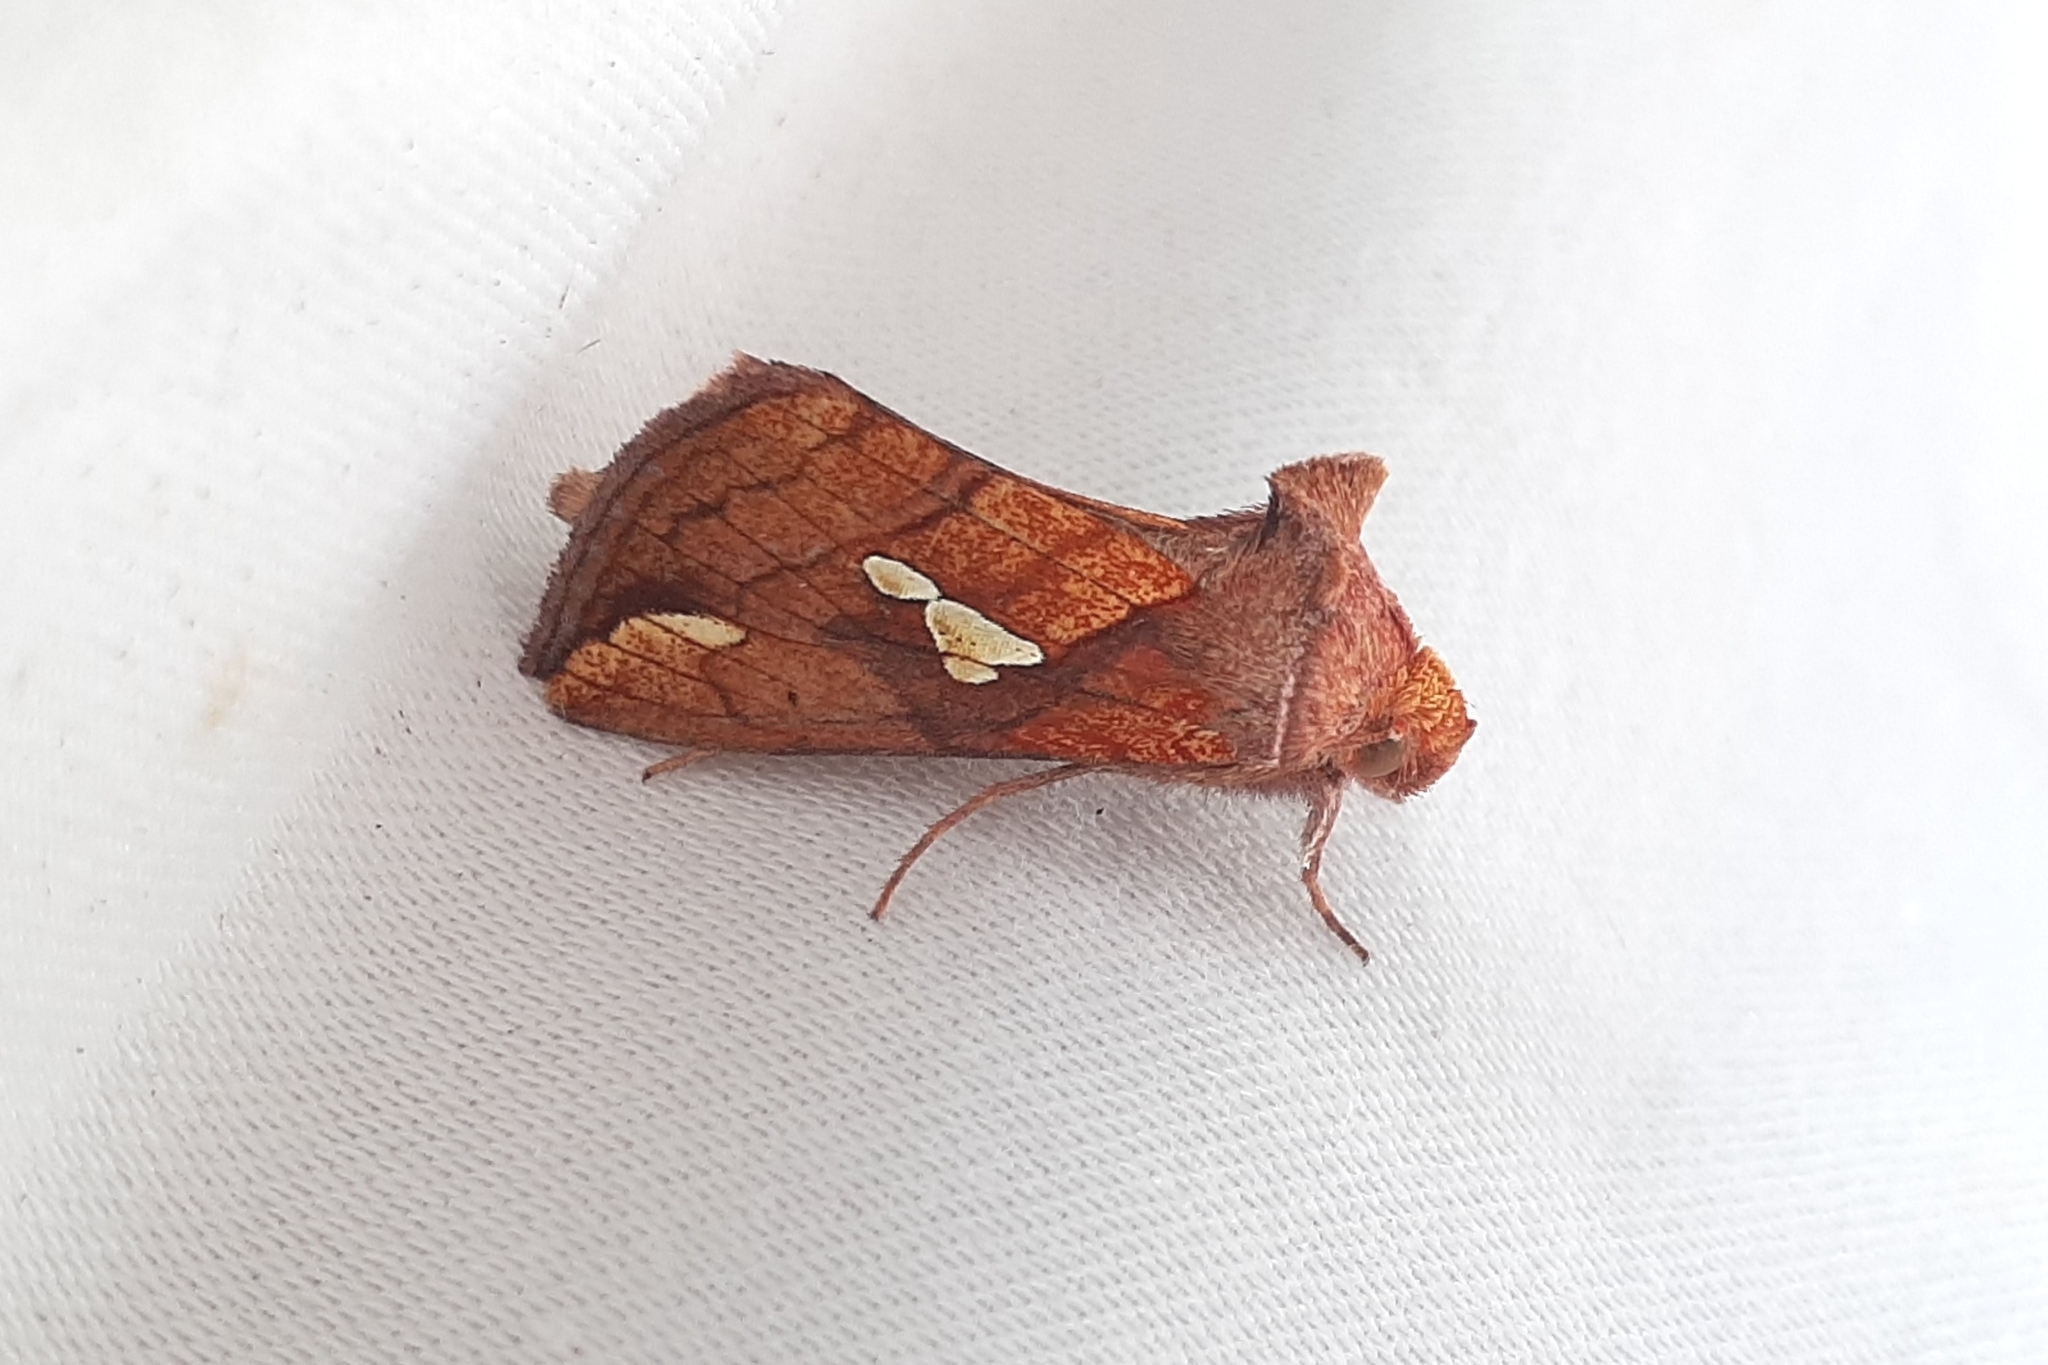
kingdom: Animalia
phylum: Arthropoda
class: Insecta
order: Lepidoptera
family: Noctuidae
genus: Plusia
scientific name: Plusia putnami
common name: Lempke's gold spot
